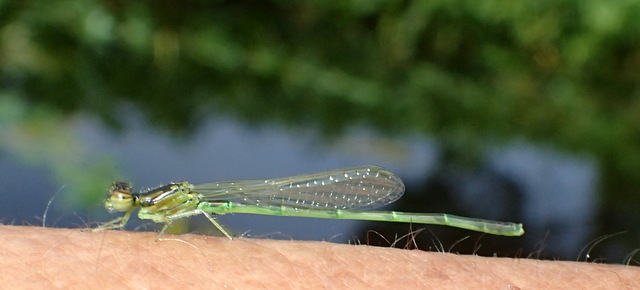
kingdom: Animalia
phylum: Arthropoda
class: Insecta
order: Odonata
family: Coenagrionidae
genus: Ischnura
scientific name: Ischnura posita
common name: Fragile forktail
